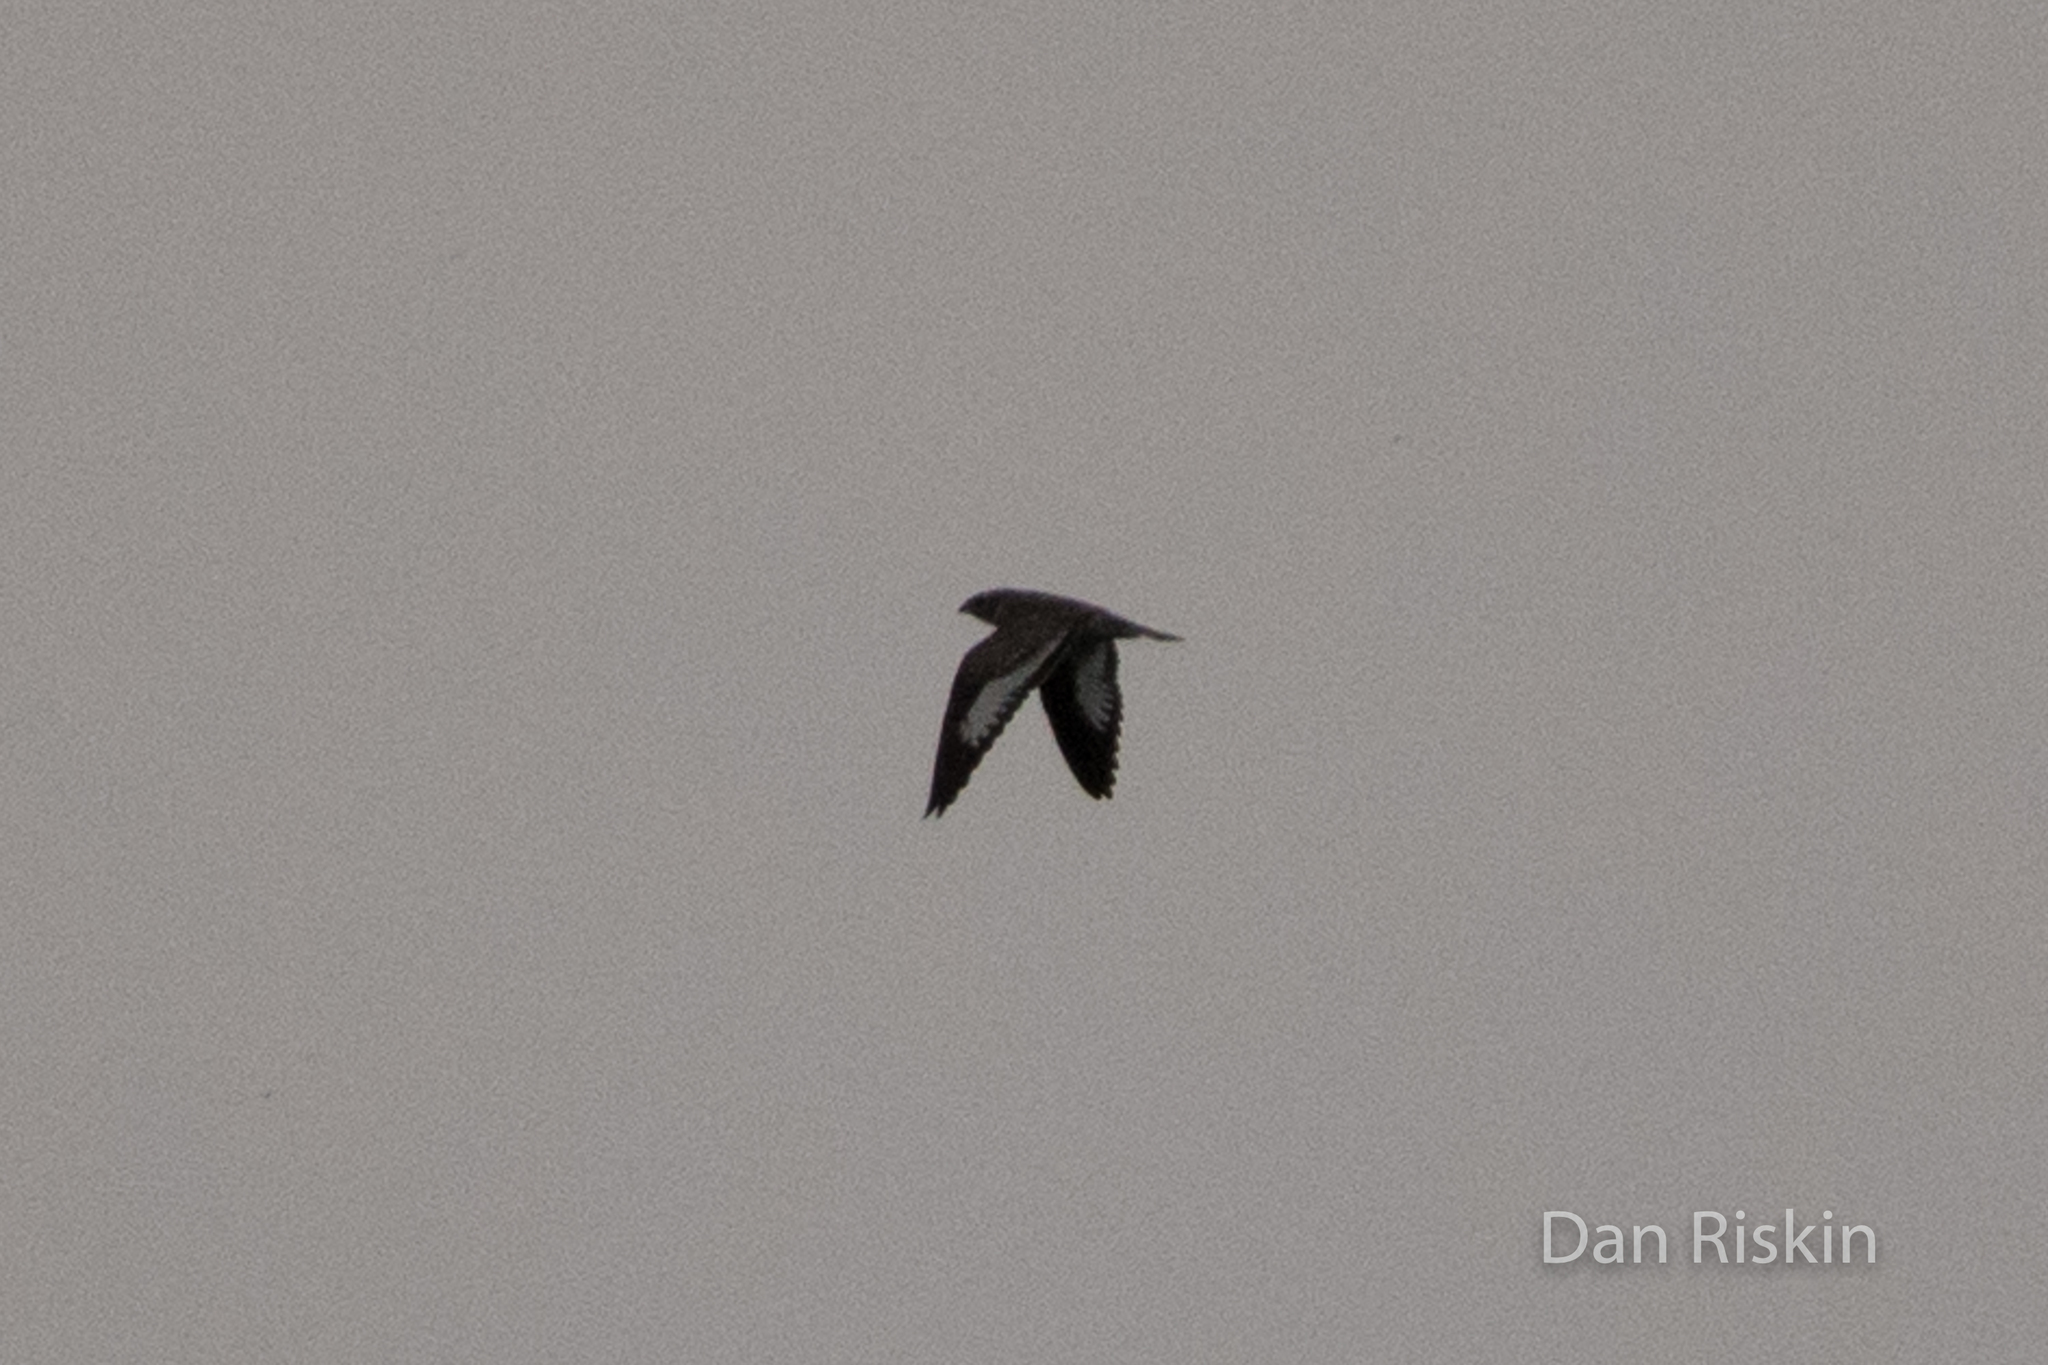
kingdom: Animalia
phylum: Chordata
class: Aves
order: Caprimulgiformes
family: Caprimulgidae
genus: Chordeiles
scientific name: Chordeiles rupestris
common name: Sand-colored nighthawk
